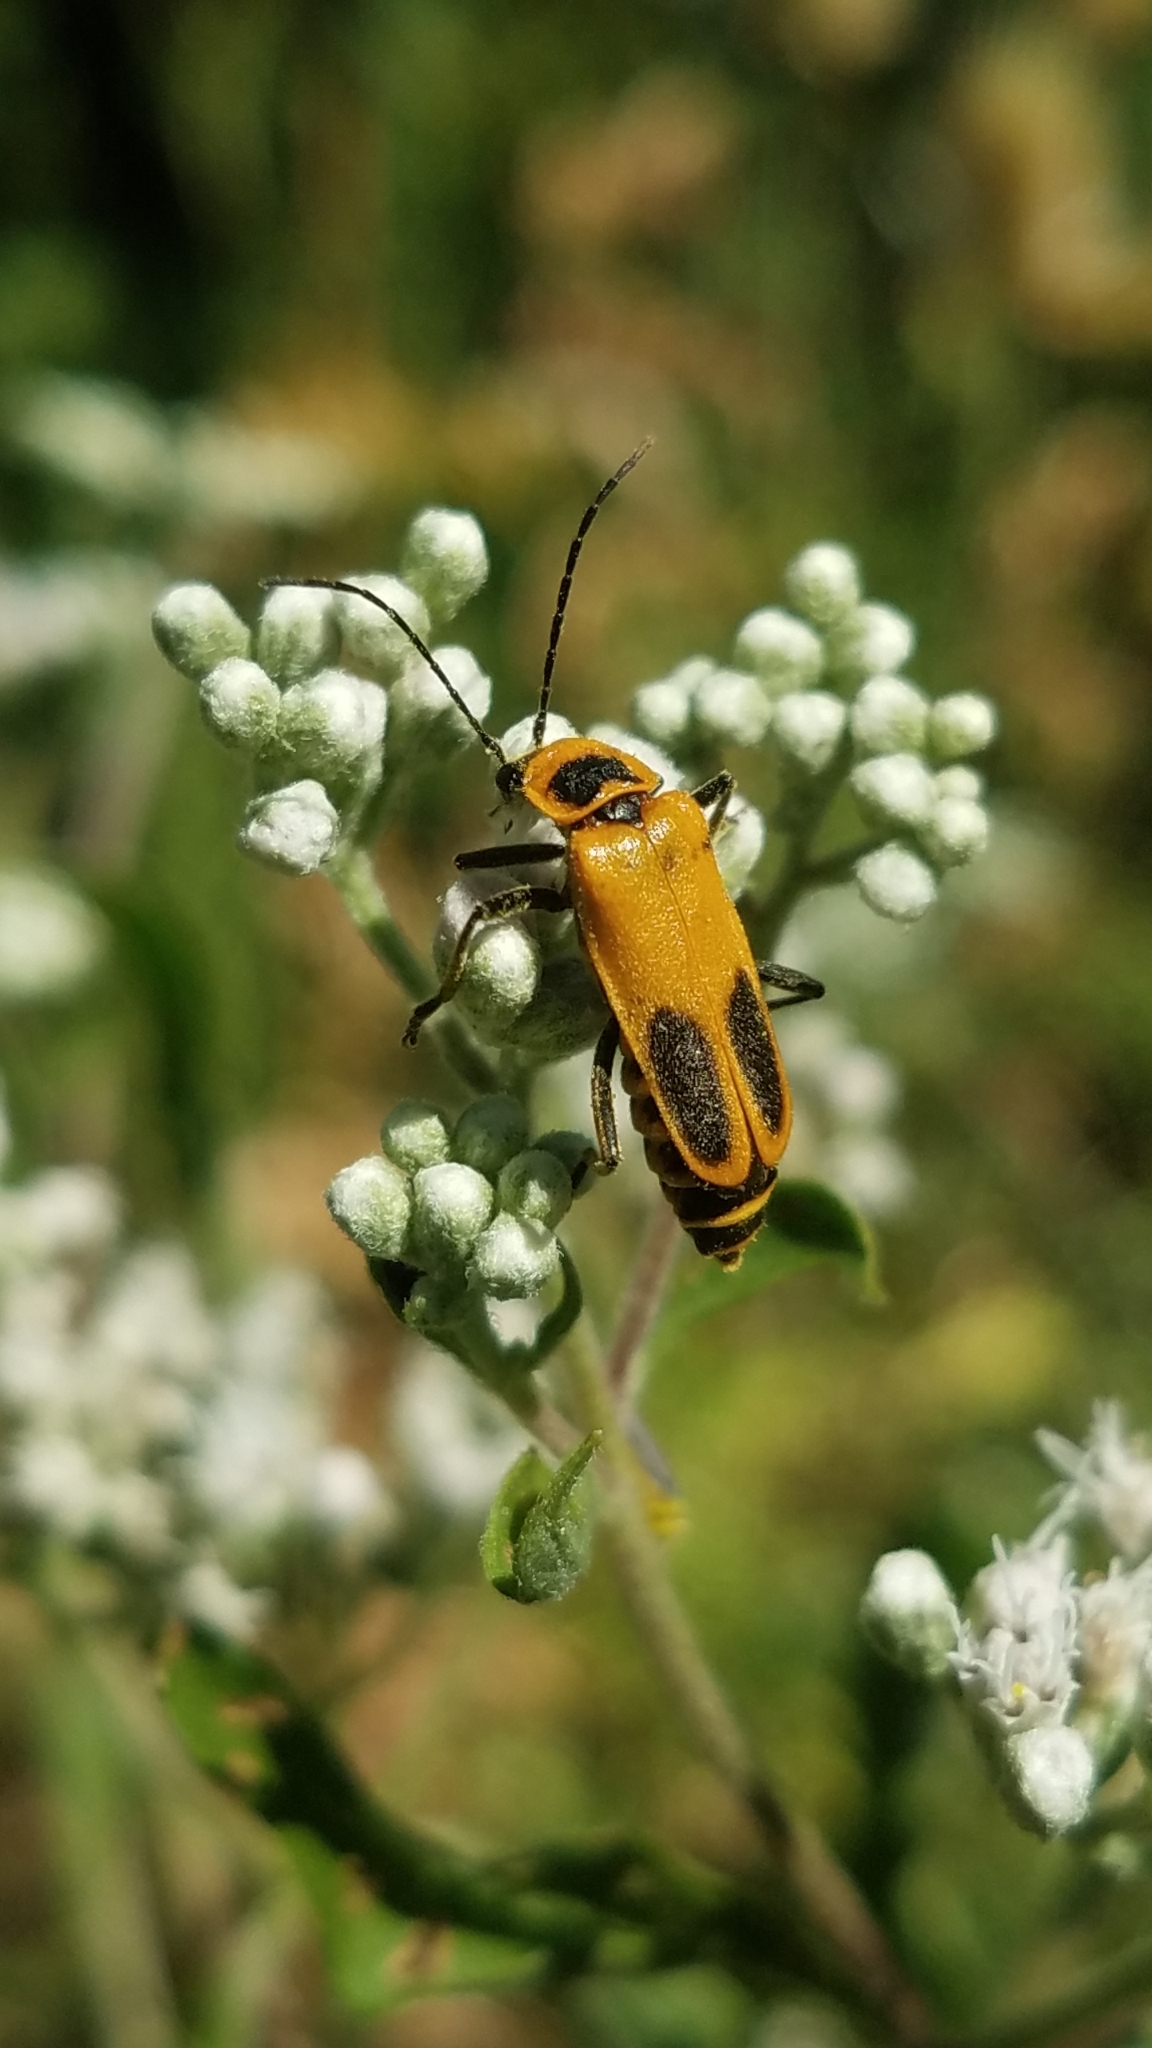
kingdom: Animalia
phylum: Arthropoda
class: Insecta
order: Coleoptera
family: Cantharidae
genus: Chauliognathus
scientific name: Chauliognathus pensylvanicus
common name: Goldenrod soldier beetle
